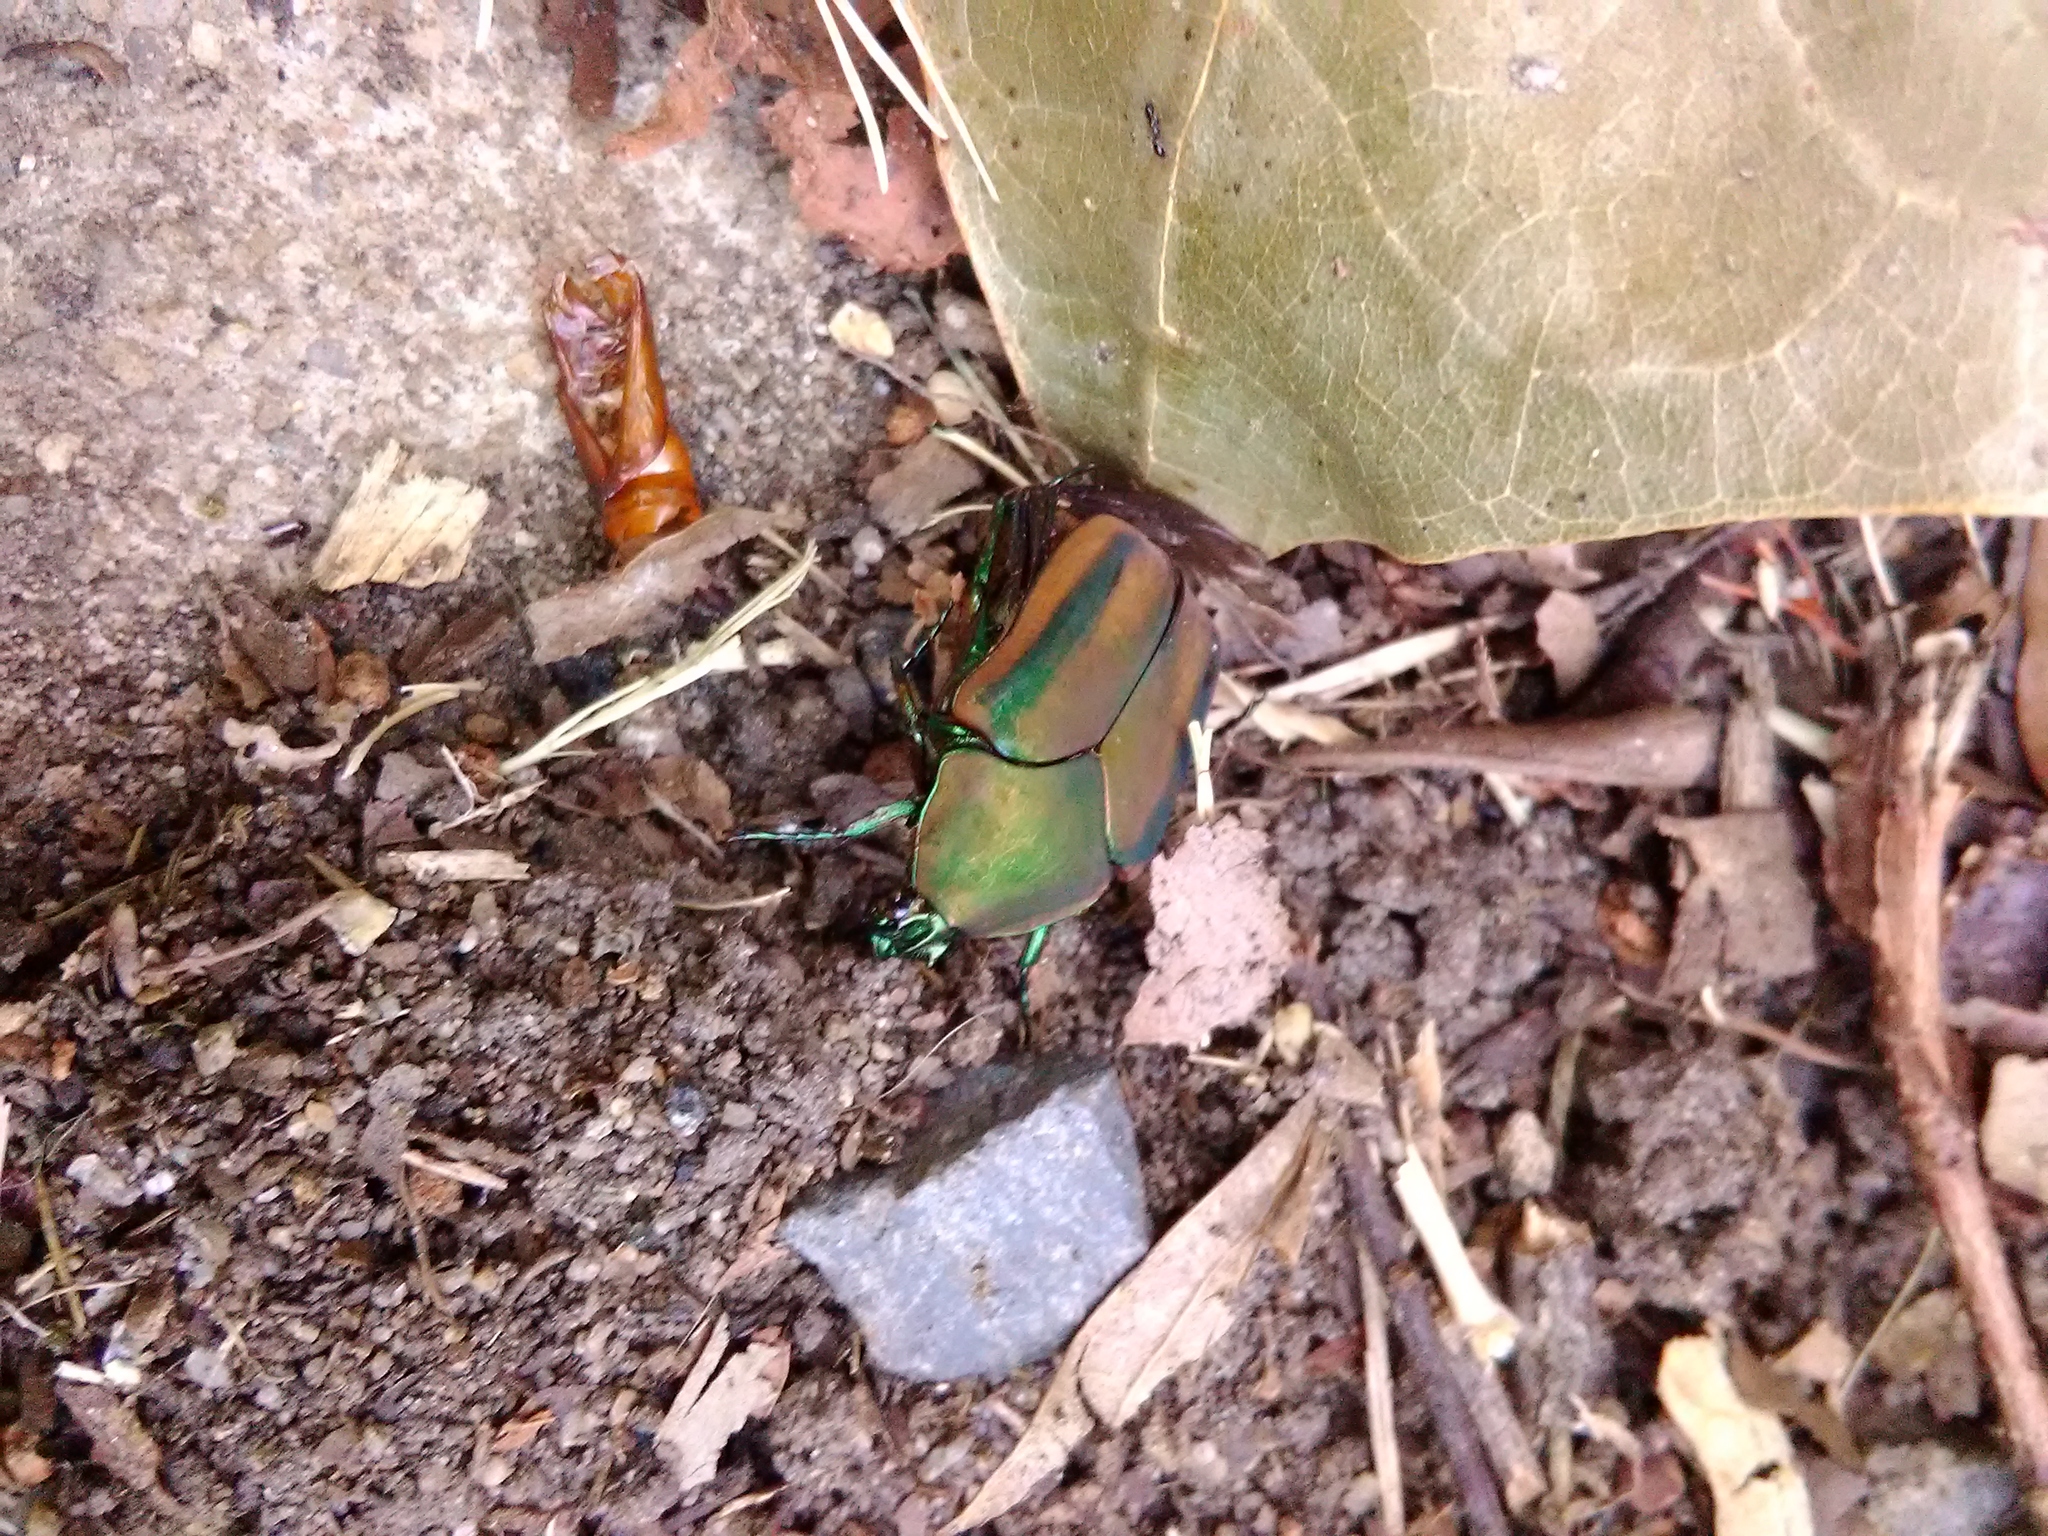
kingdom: Animalia
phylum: Arthropoda
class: Insecta
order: Coleoptera
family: Scarabaeidae
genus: Cotinis
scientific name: Cotinis nitida
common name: Common green june beetle
